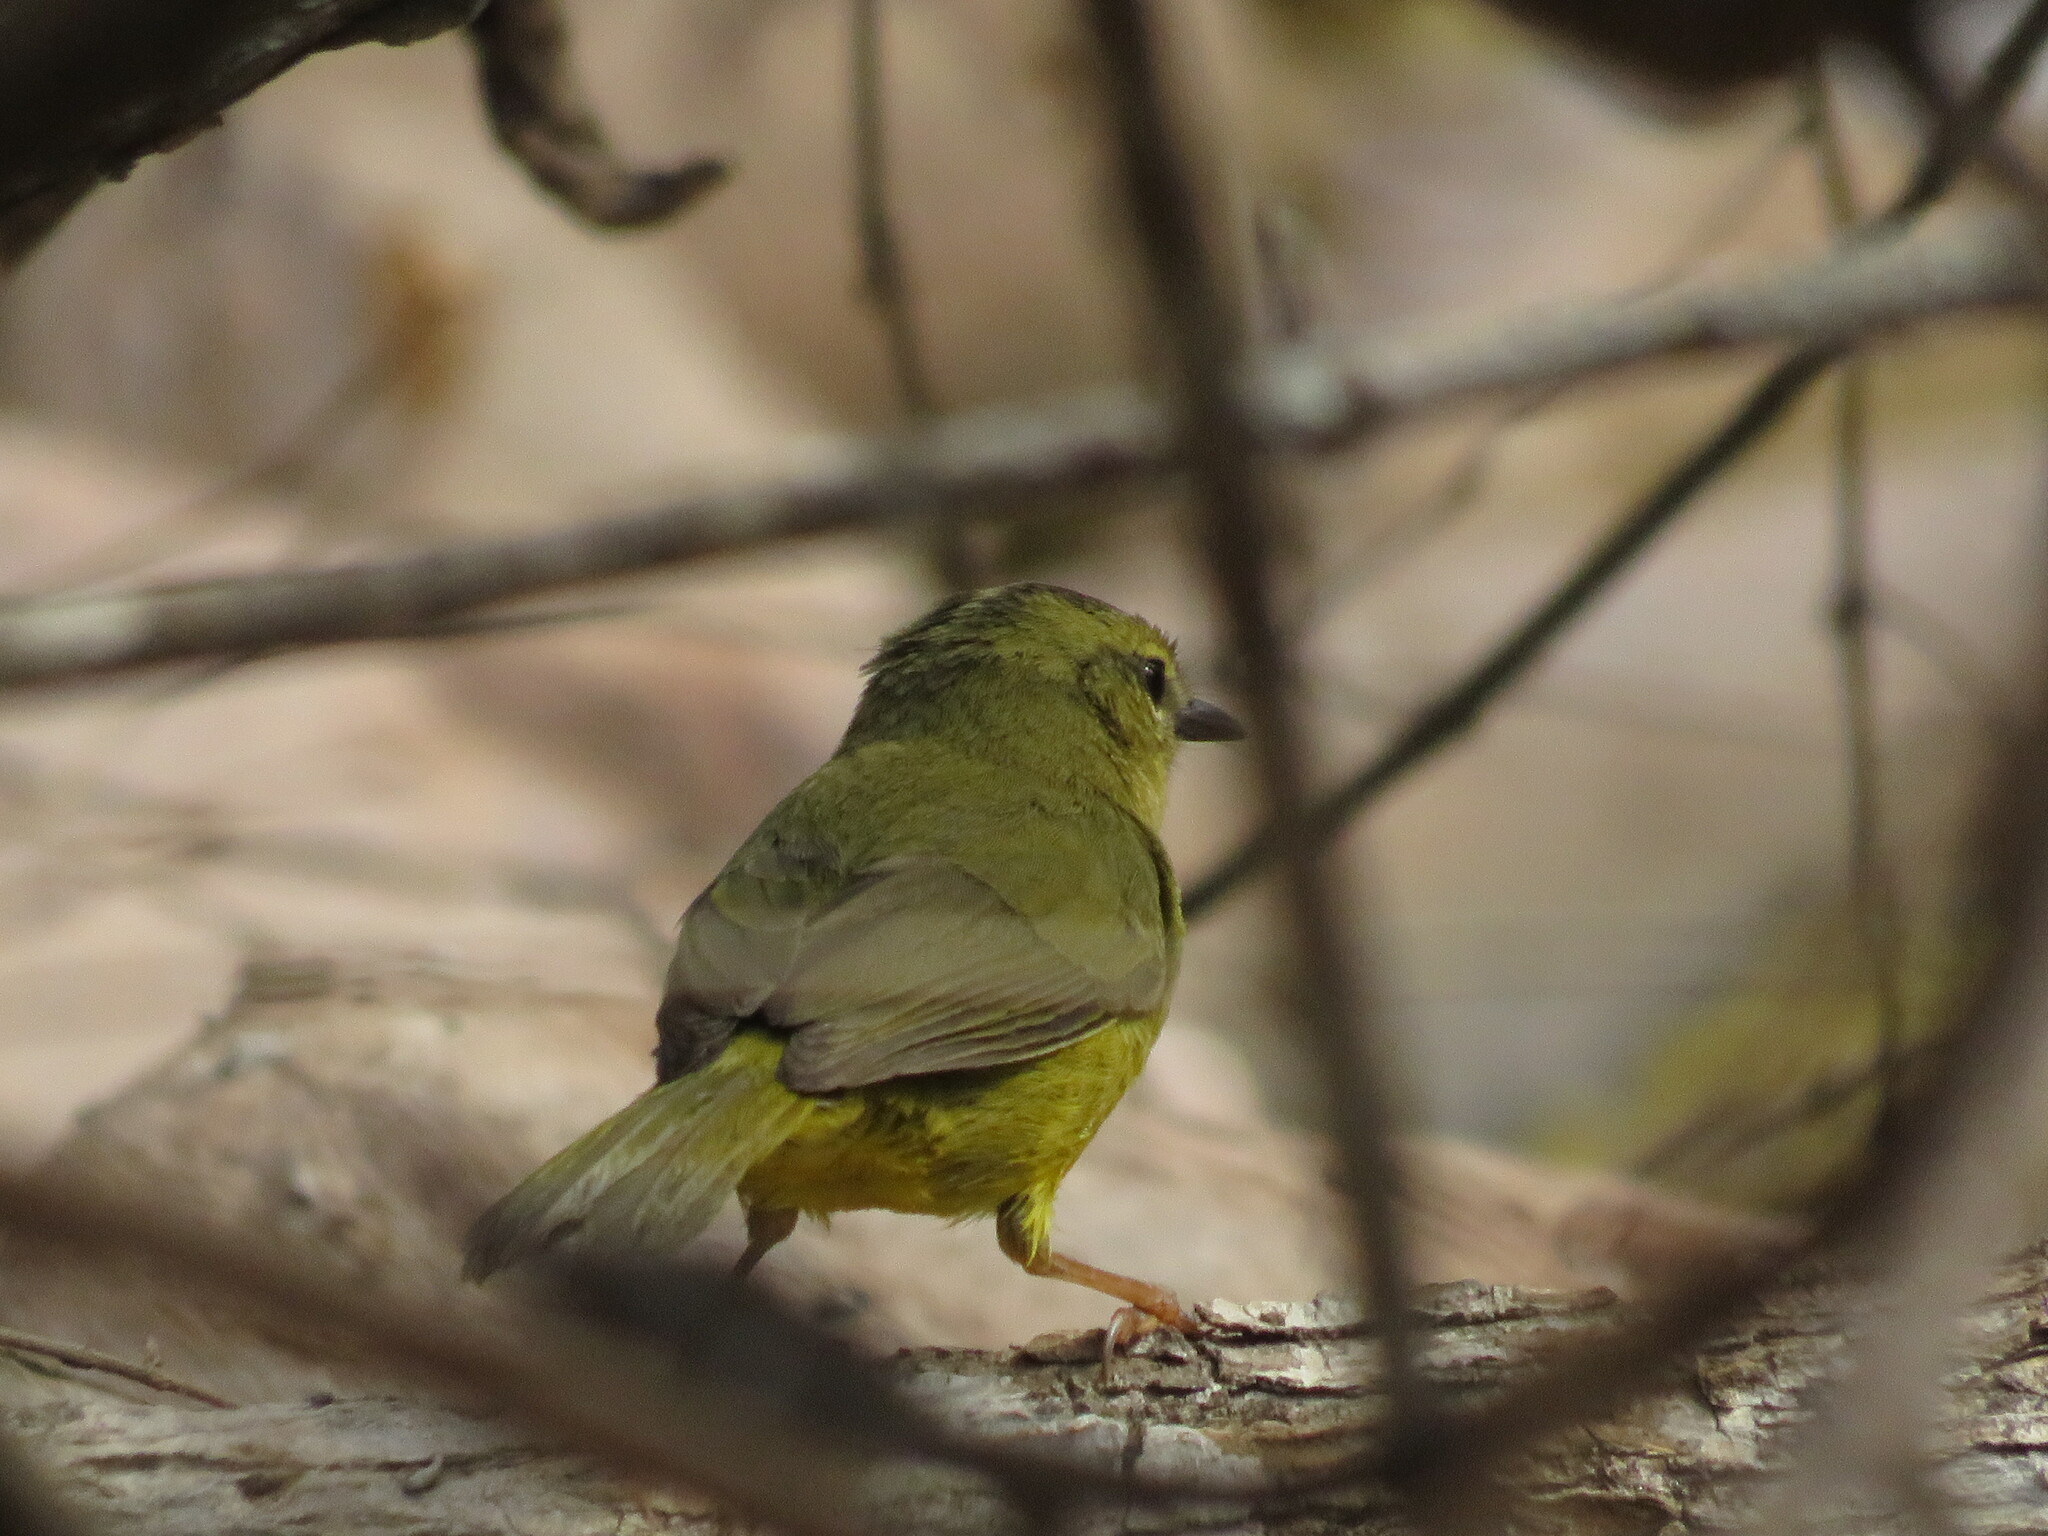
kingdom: Animalia
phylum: Chordata
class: Aves
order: Passeriformes
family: Parulidae
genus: Myiothlypis
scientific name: Myiothlypis bivittata
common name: Two-banded warbler
